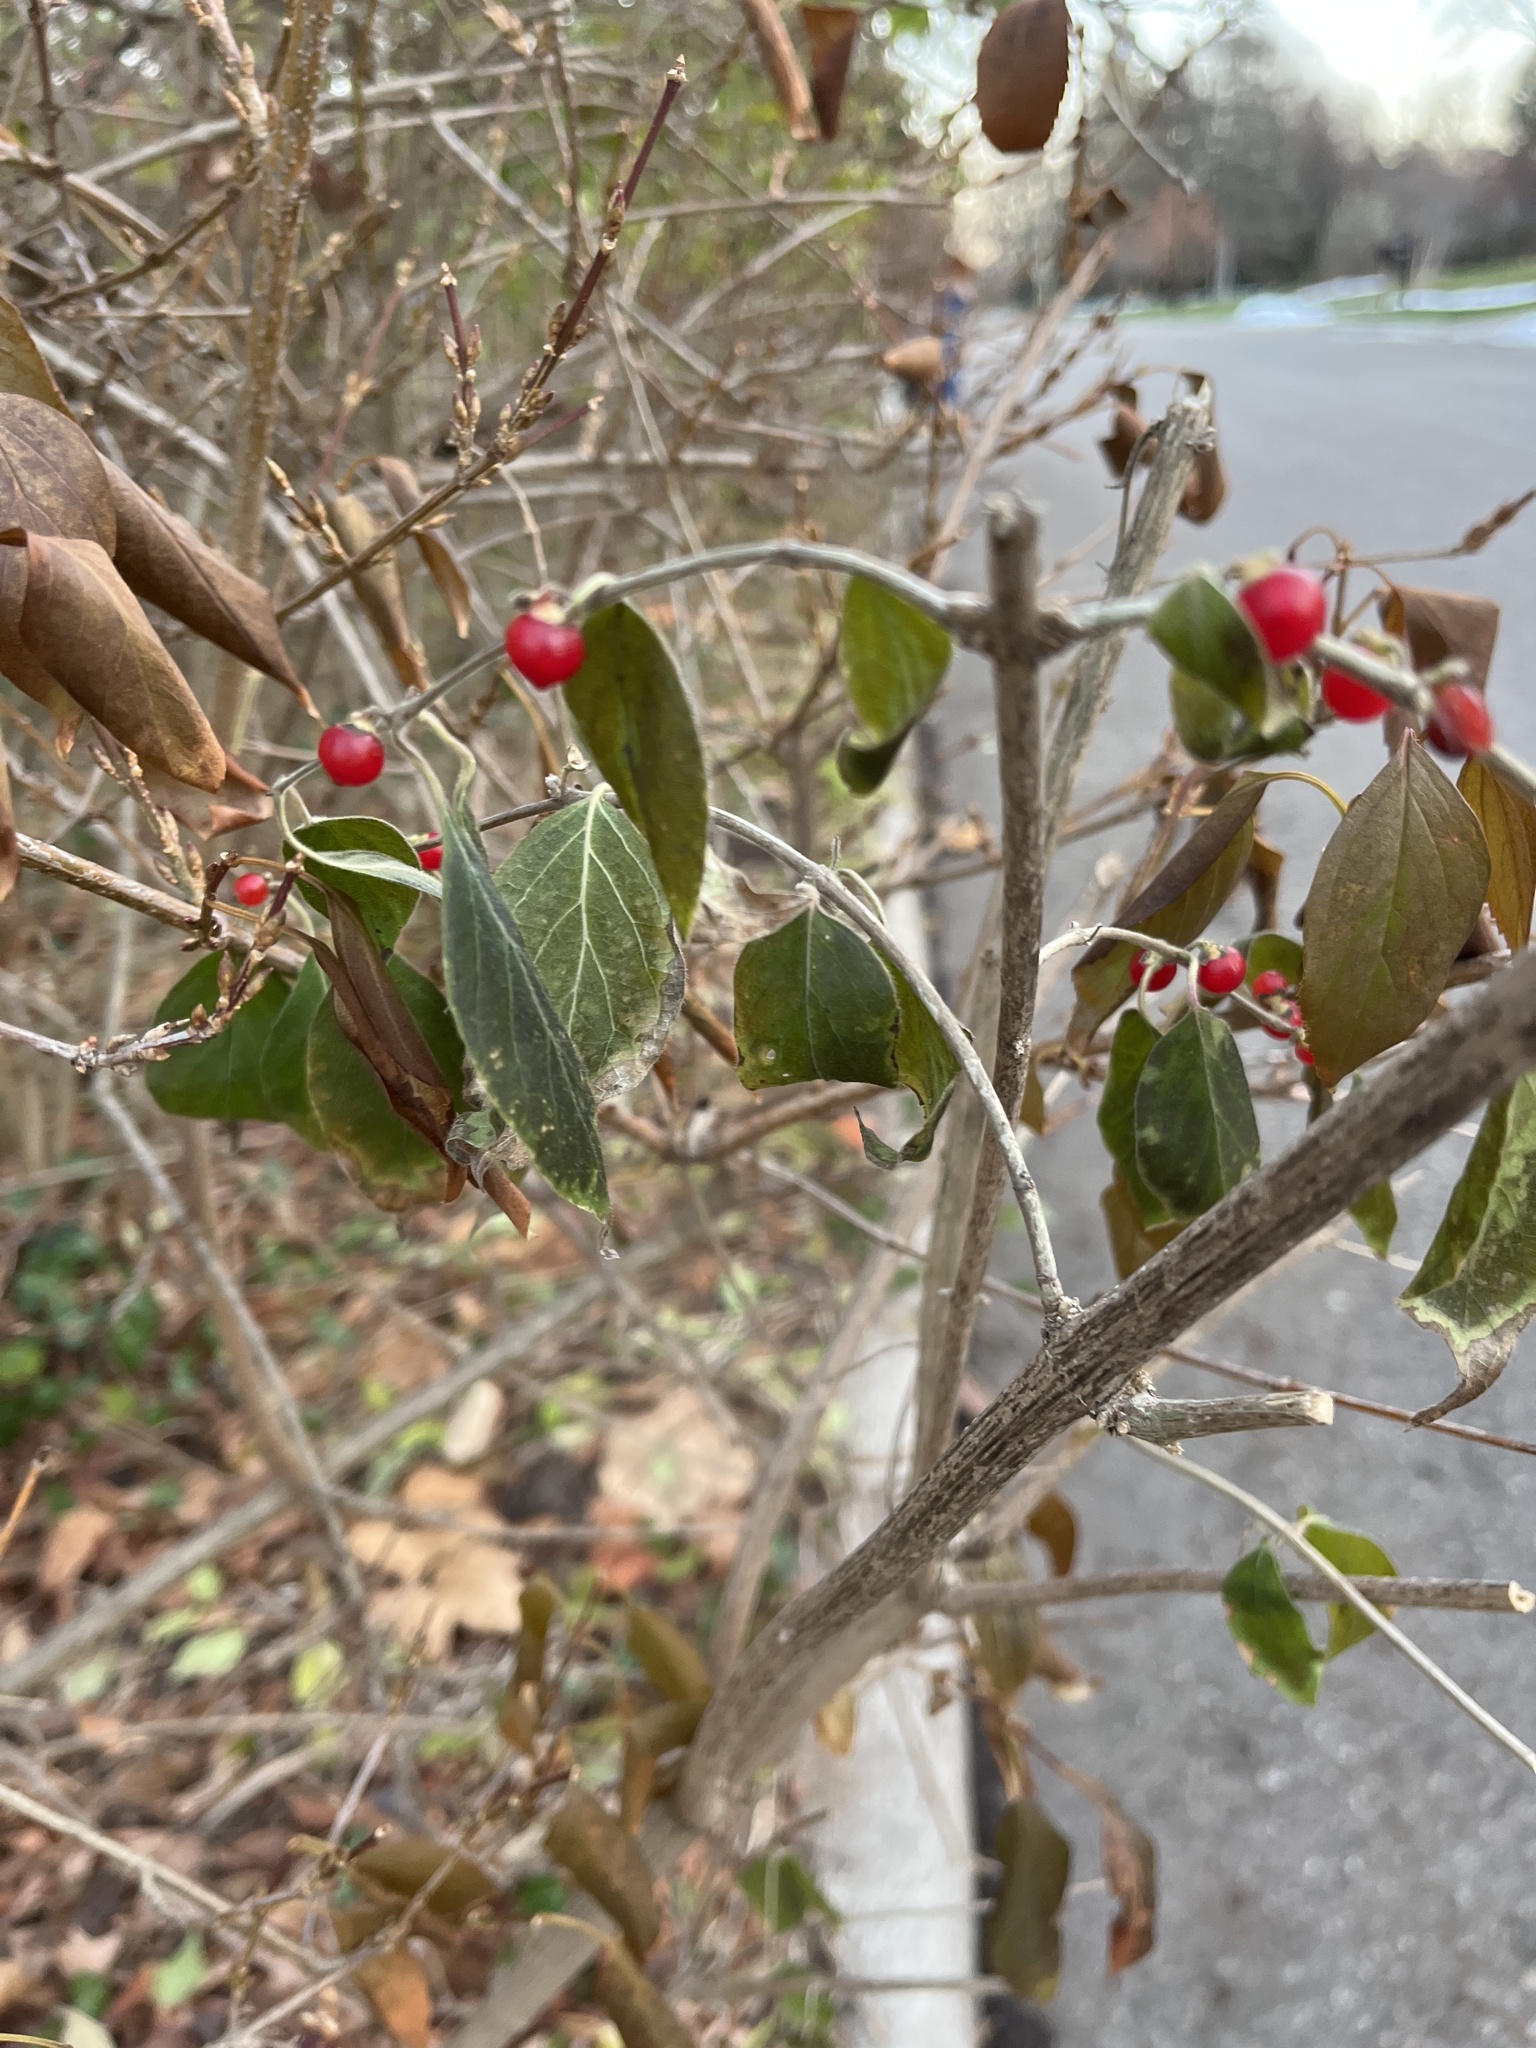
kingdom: Plantae
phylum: Tracheophyta
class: Magnoliopsida
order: Dipsacales
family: Caprifoliaceae
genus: Lonicera
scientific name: Lonicera maackii
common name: Amur honeysuckle
